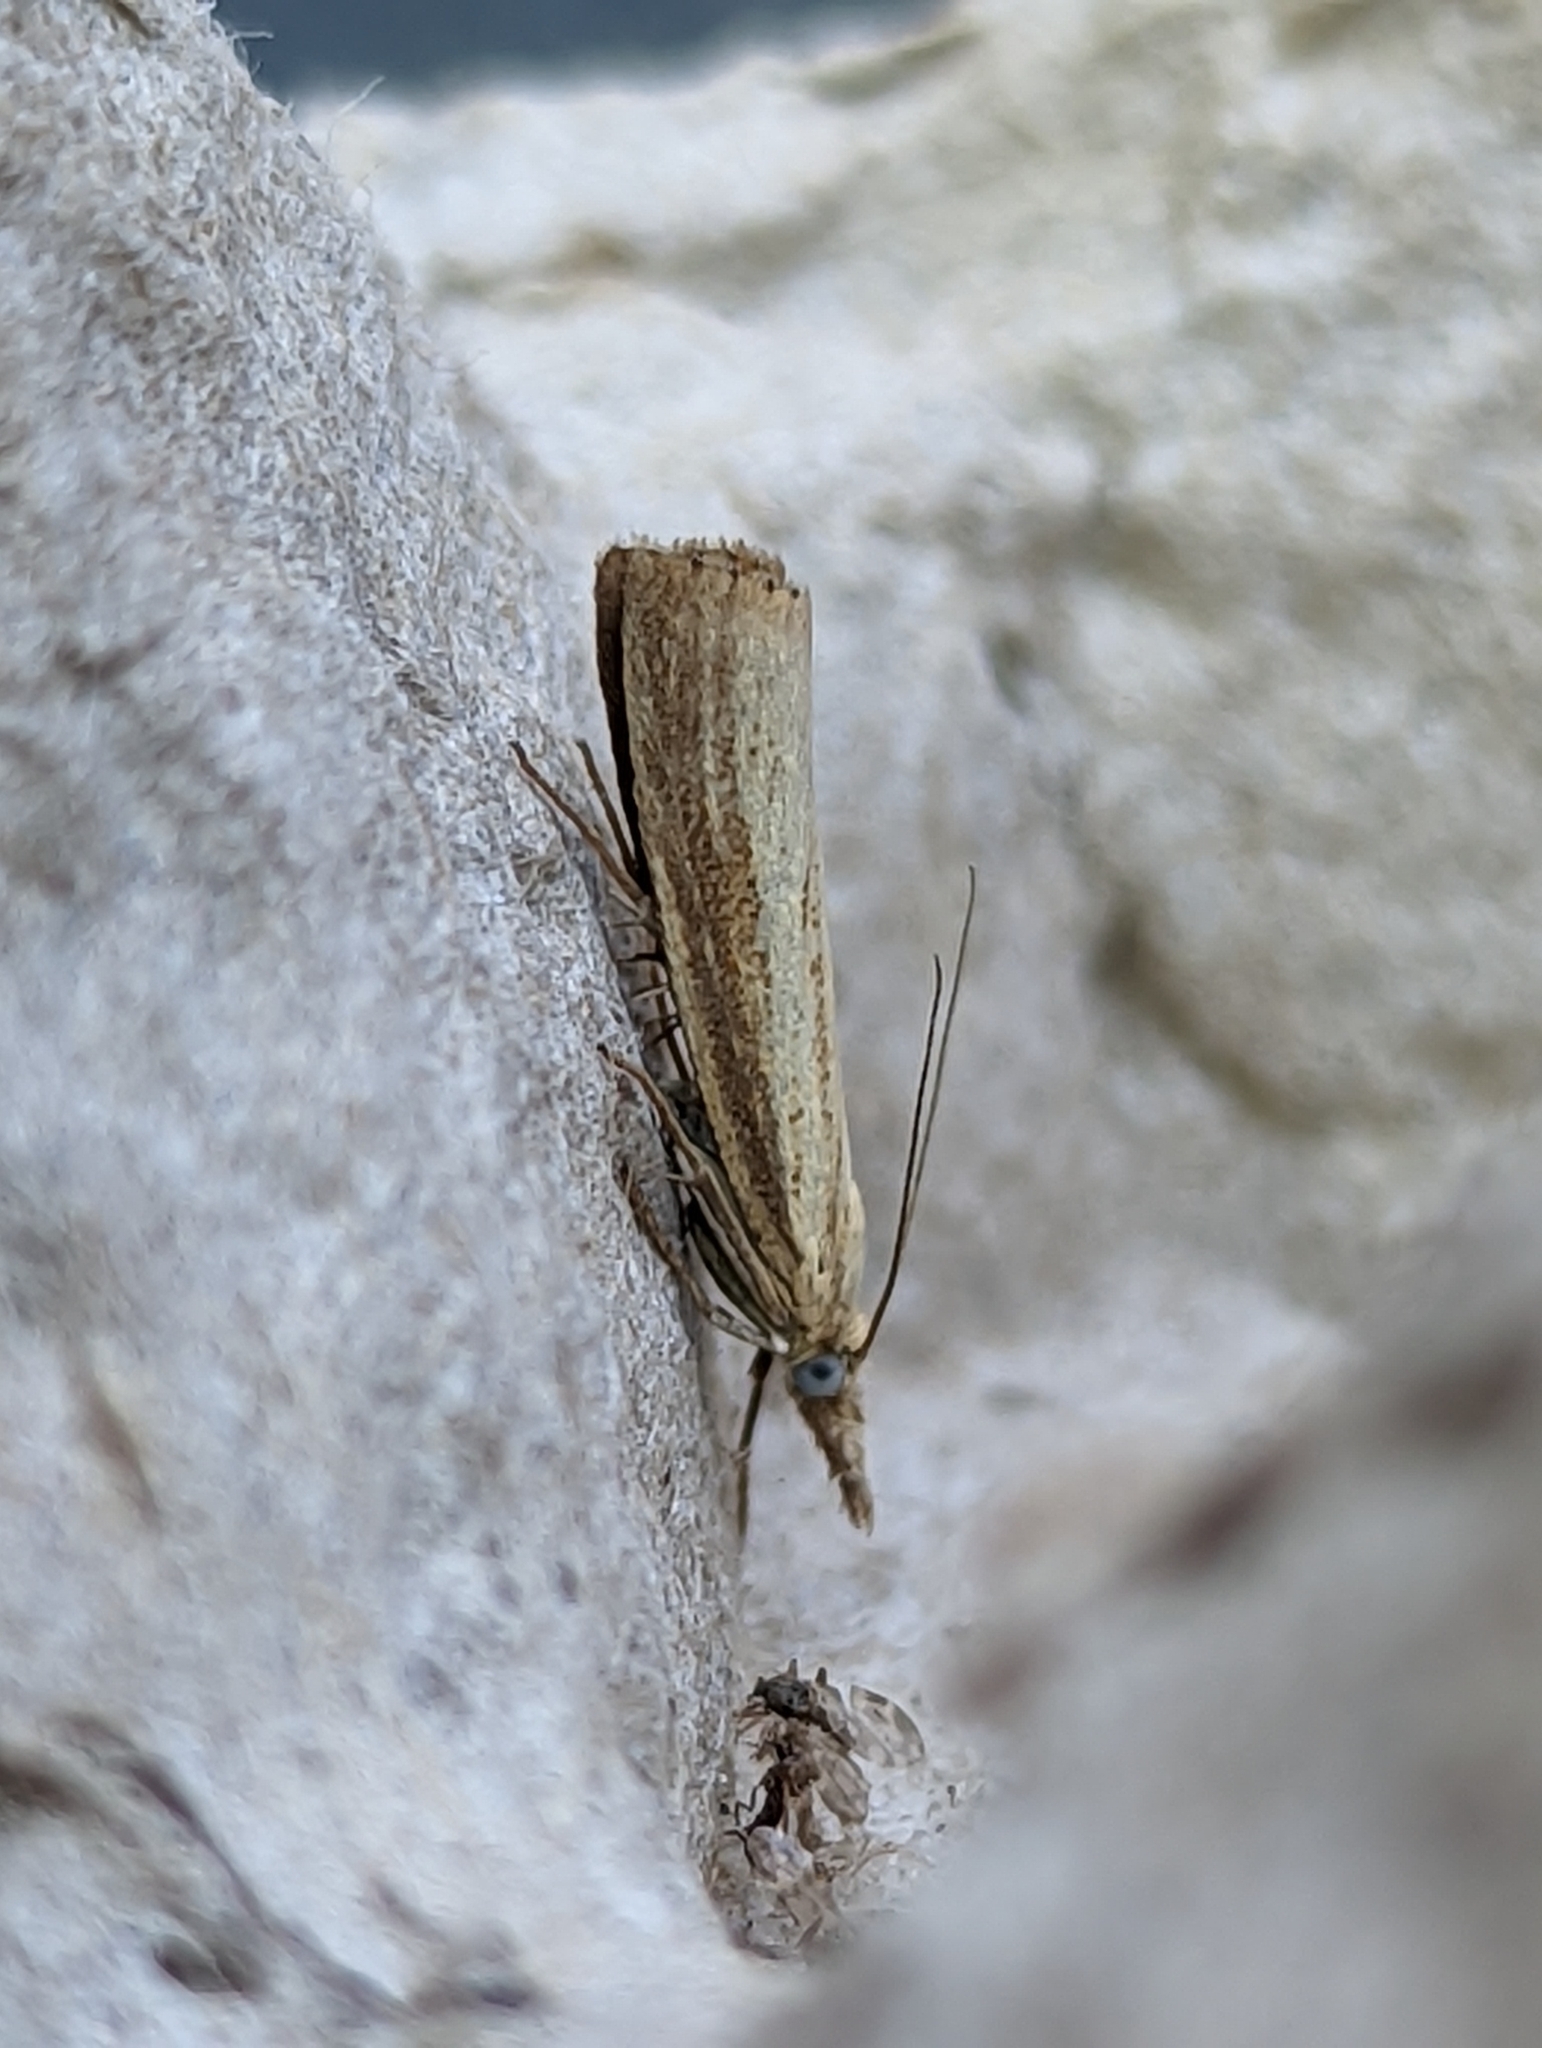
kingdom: Animalia
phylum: Arthropoda
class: Insecta
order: Lepidoptera
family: Crambidae
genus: Agriphila
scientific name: Agriphila straminella
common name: Straw grass-veneer
